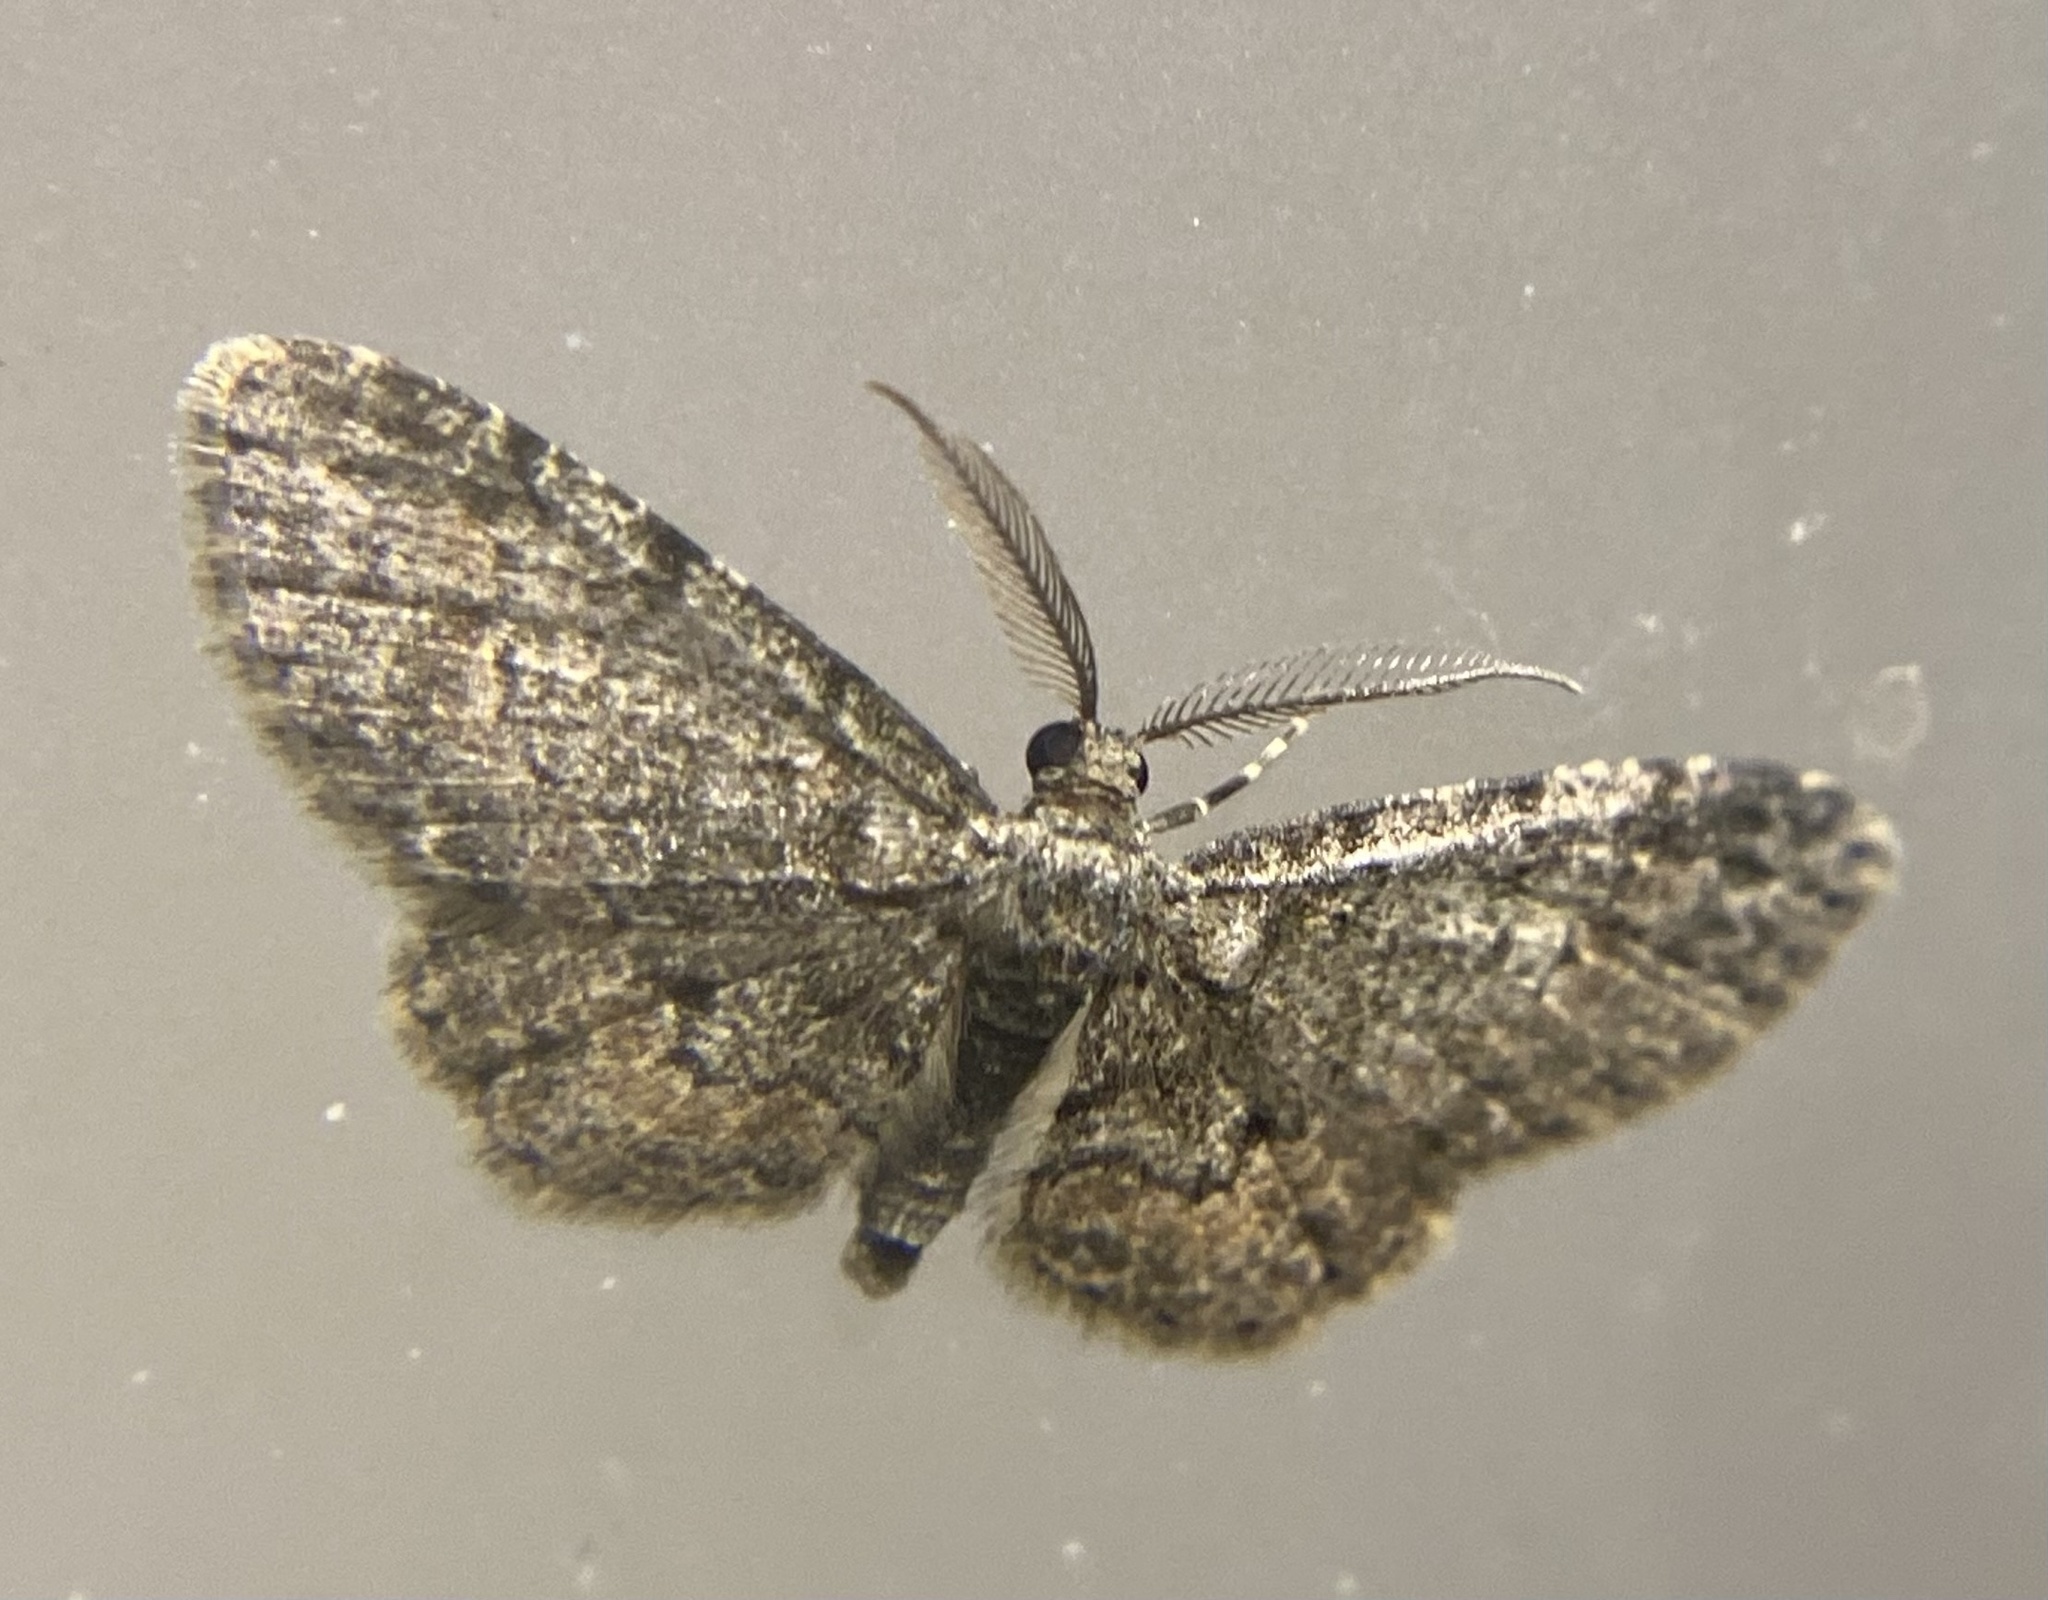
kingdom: Animalia
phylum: Arthropoda
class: Insecta
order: Lepidoptera
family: Geometridae
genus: Glenoides
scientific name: Glenoides texanaria
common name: Texas gray
